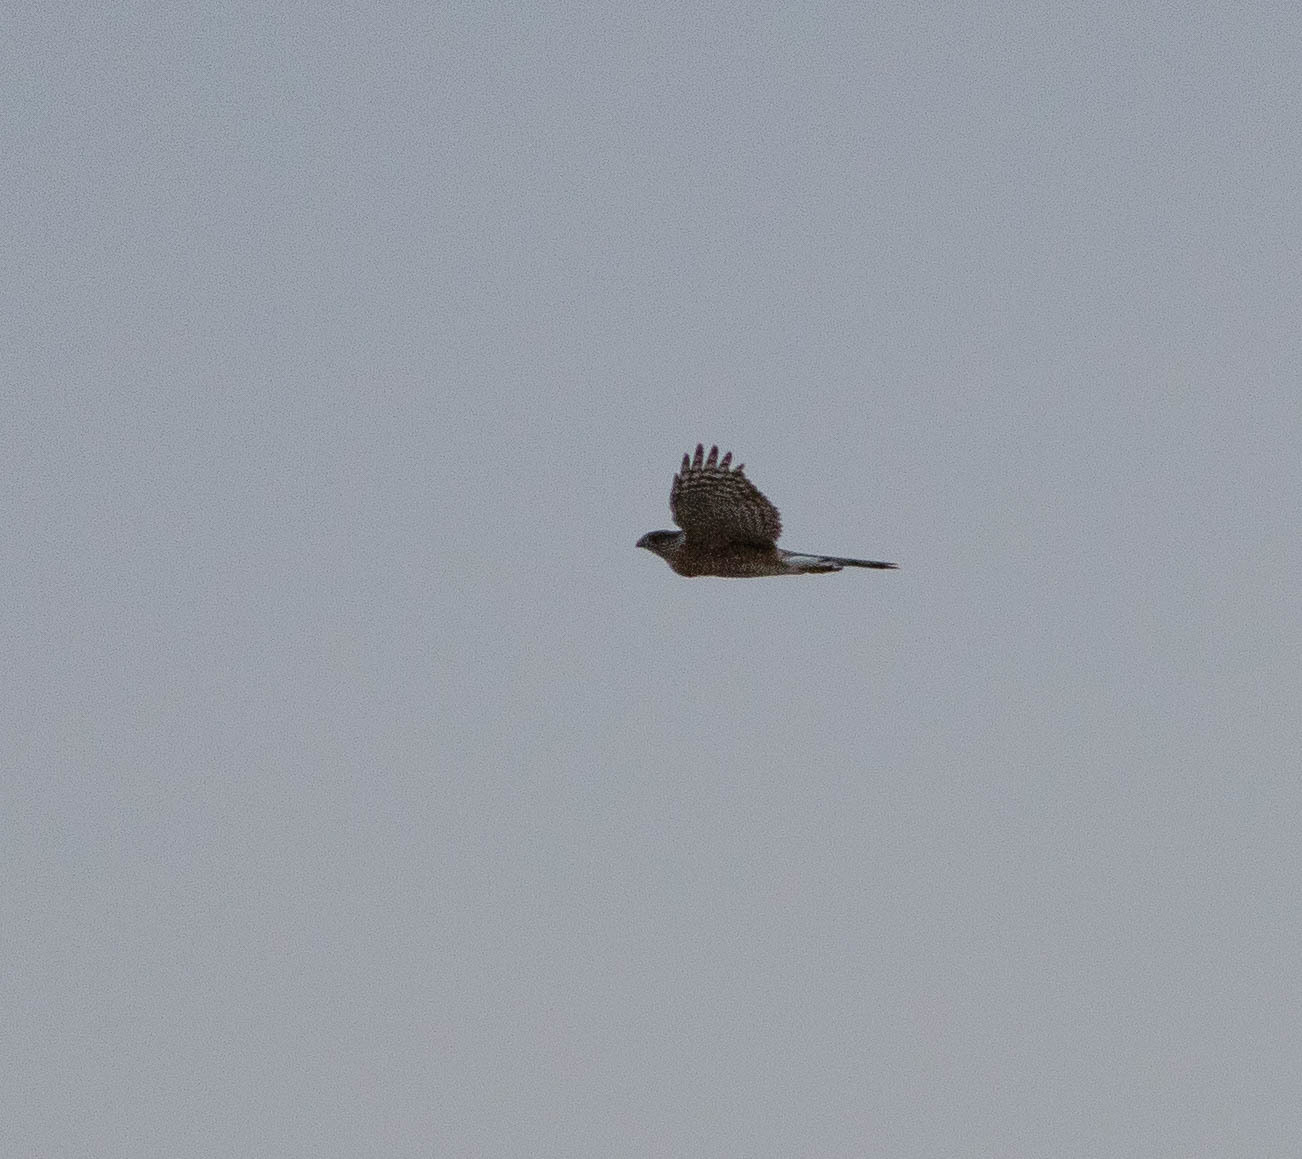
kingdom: Animalia
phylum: Chordata
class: Aves
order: Accipitriformes
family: Accipitridae
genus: Accipiter
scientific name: Accipiter cooperii
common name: Cooper's hawk
